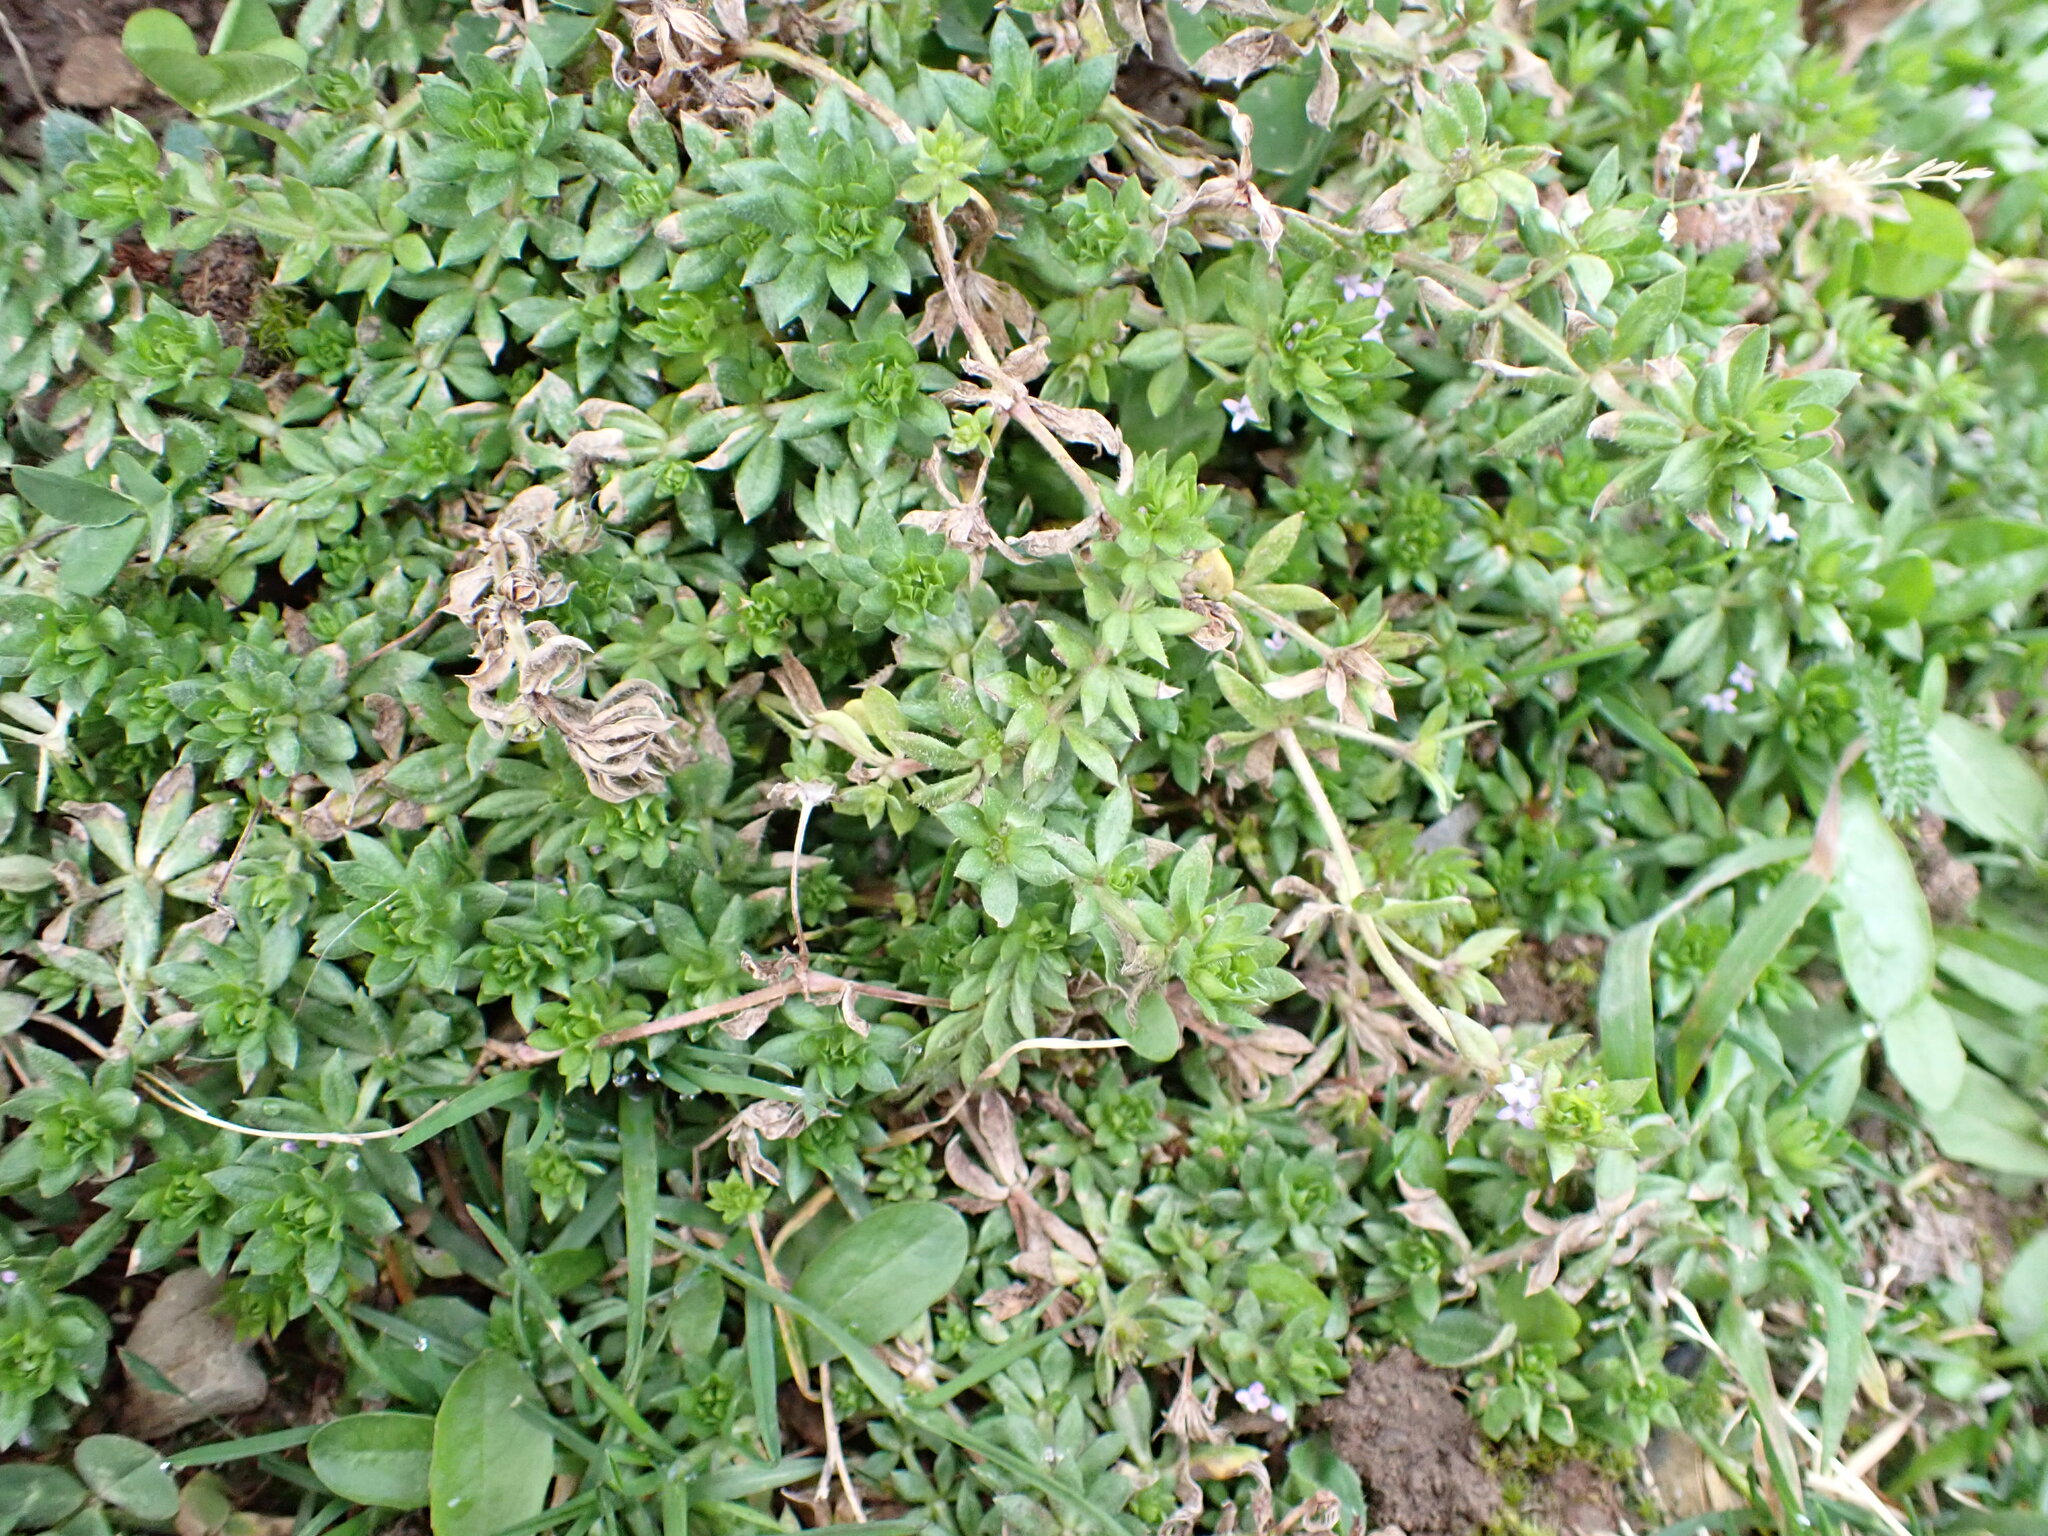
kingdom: Plantae
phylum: Tracheophyta
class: Magnoliopsida
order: Gentianales
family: Rubiaceae
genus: Sherardia
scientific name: Sherardia arvensis
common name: Field madder
